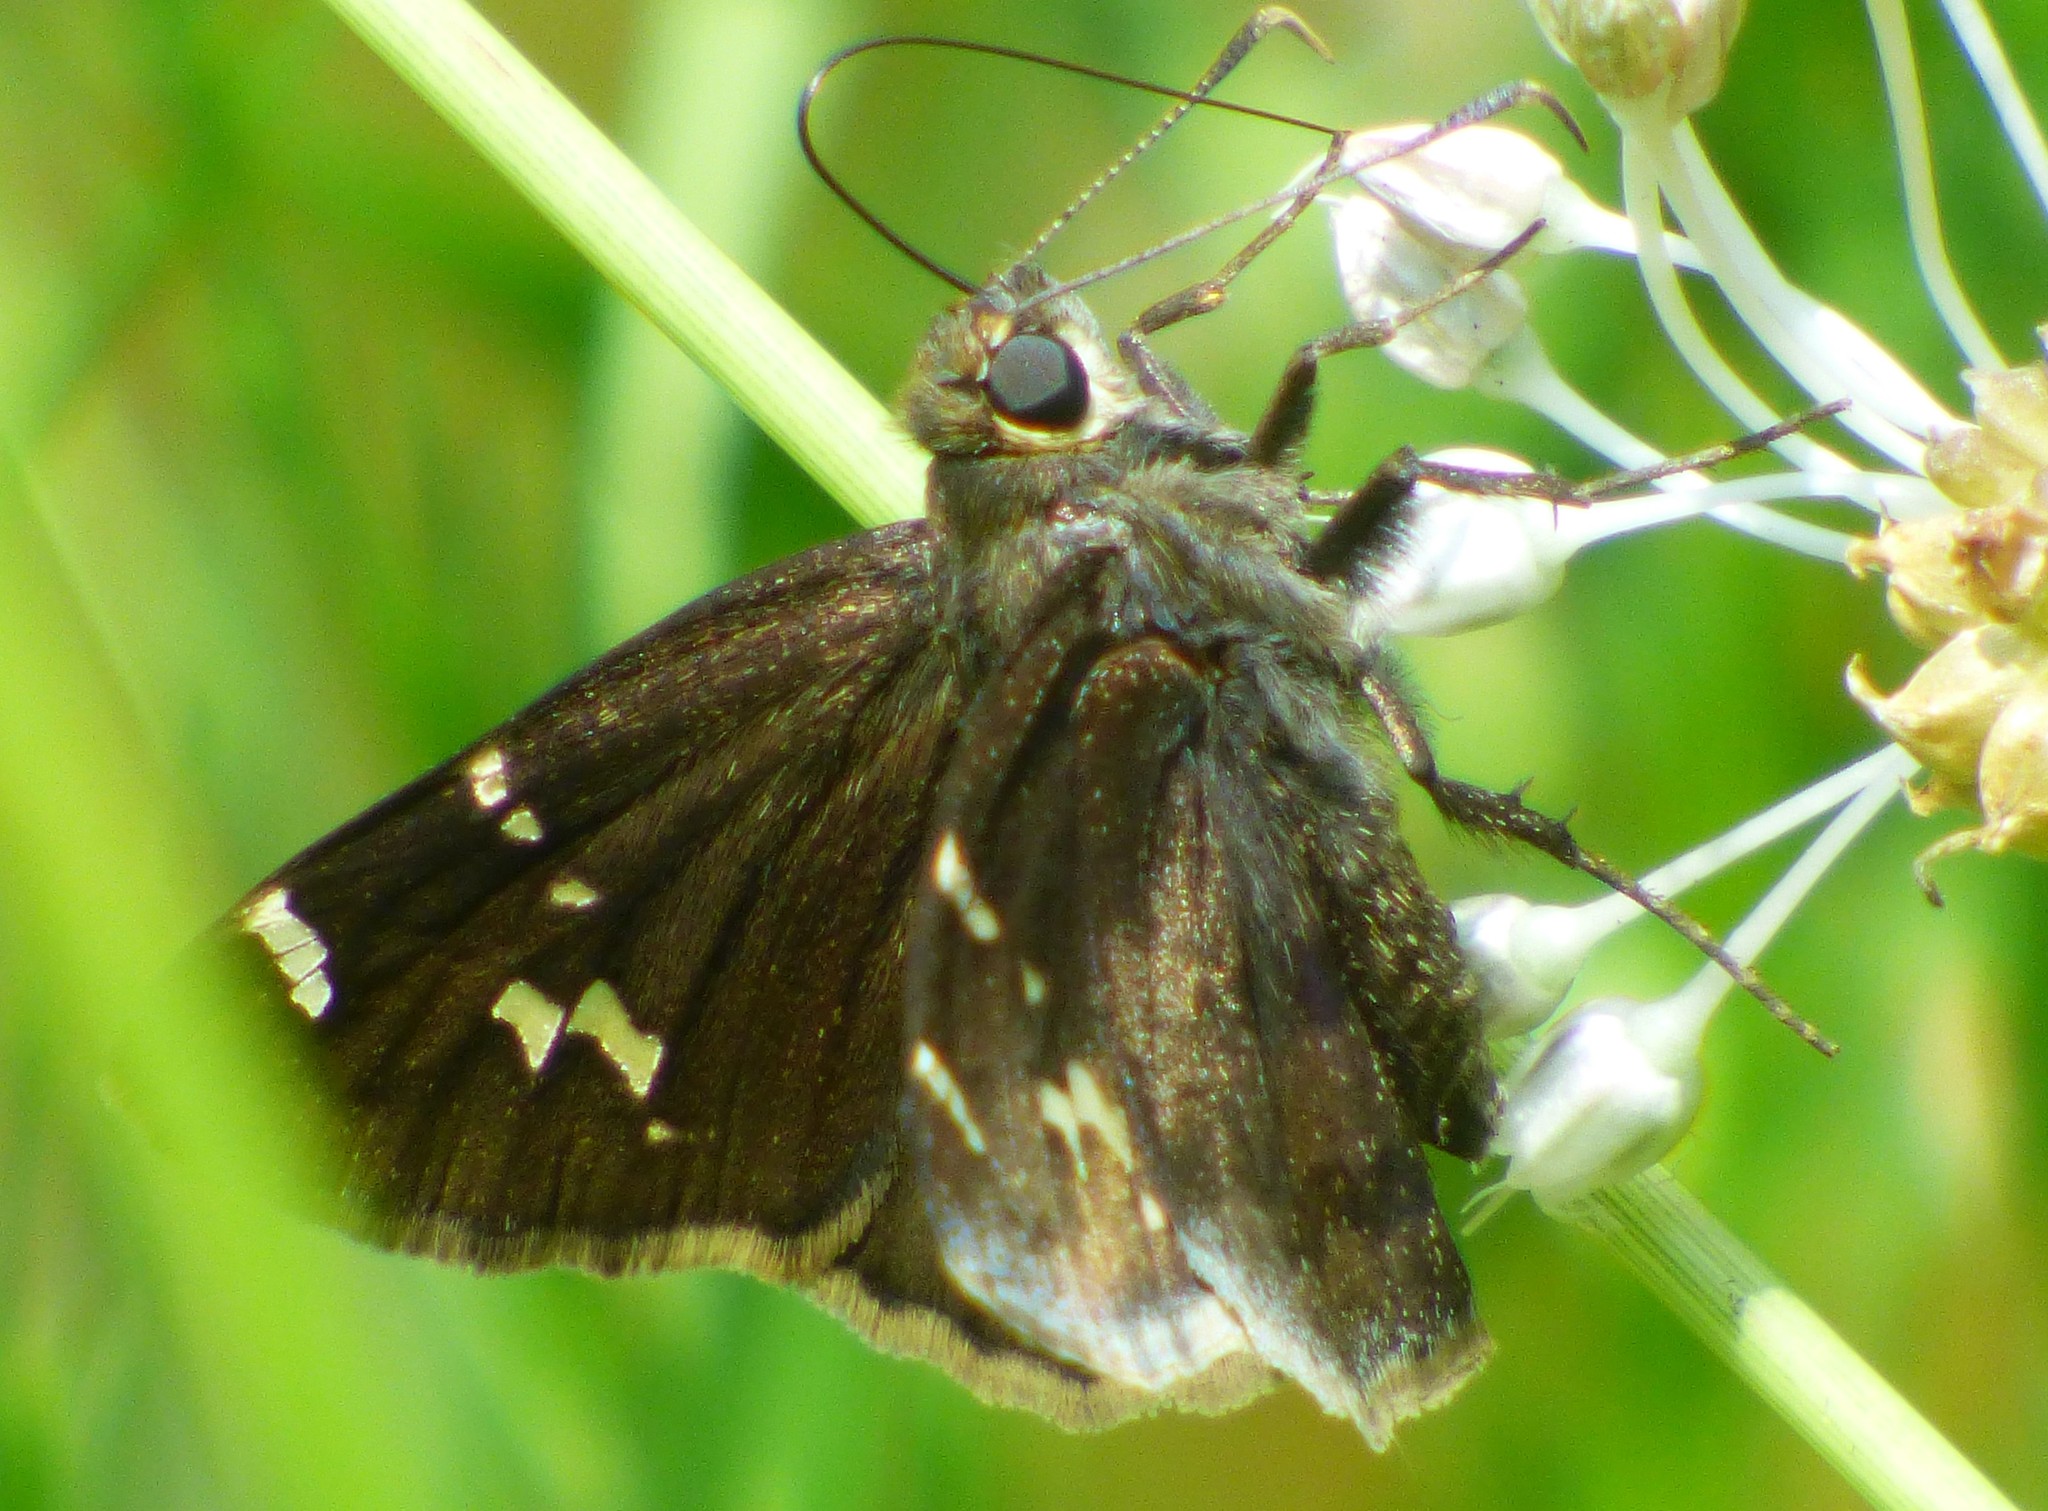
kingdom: Animalia
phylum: Arthropoda
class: Insecta
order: Lepidoptera
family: Hesperiidae
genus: Thorybes
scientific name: Thorybes daunus
